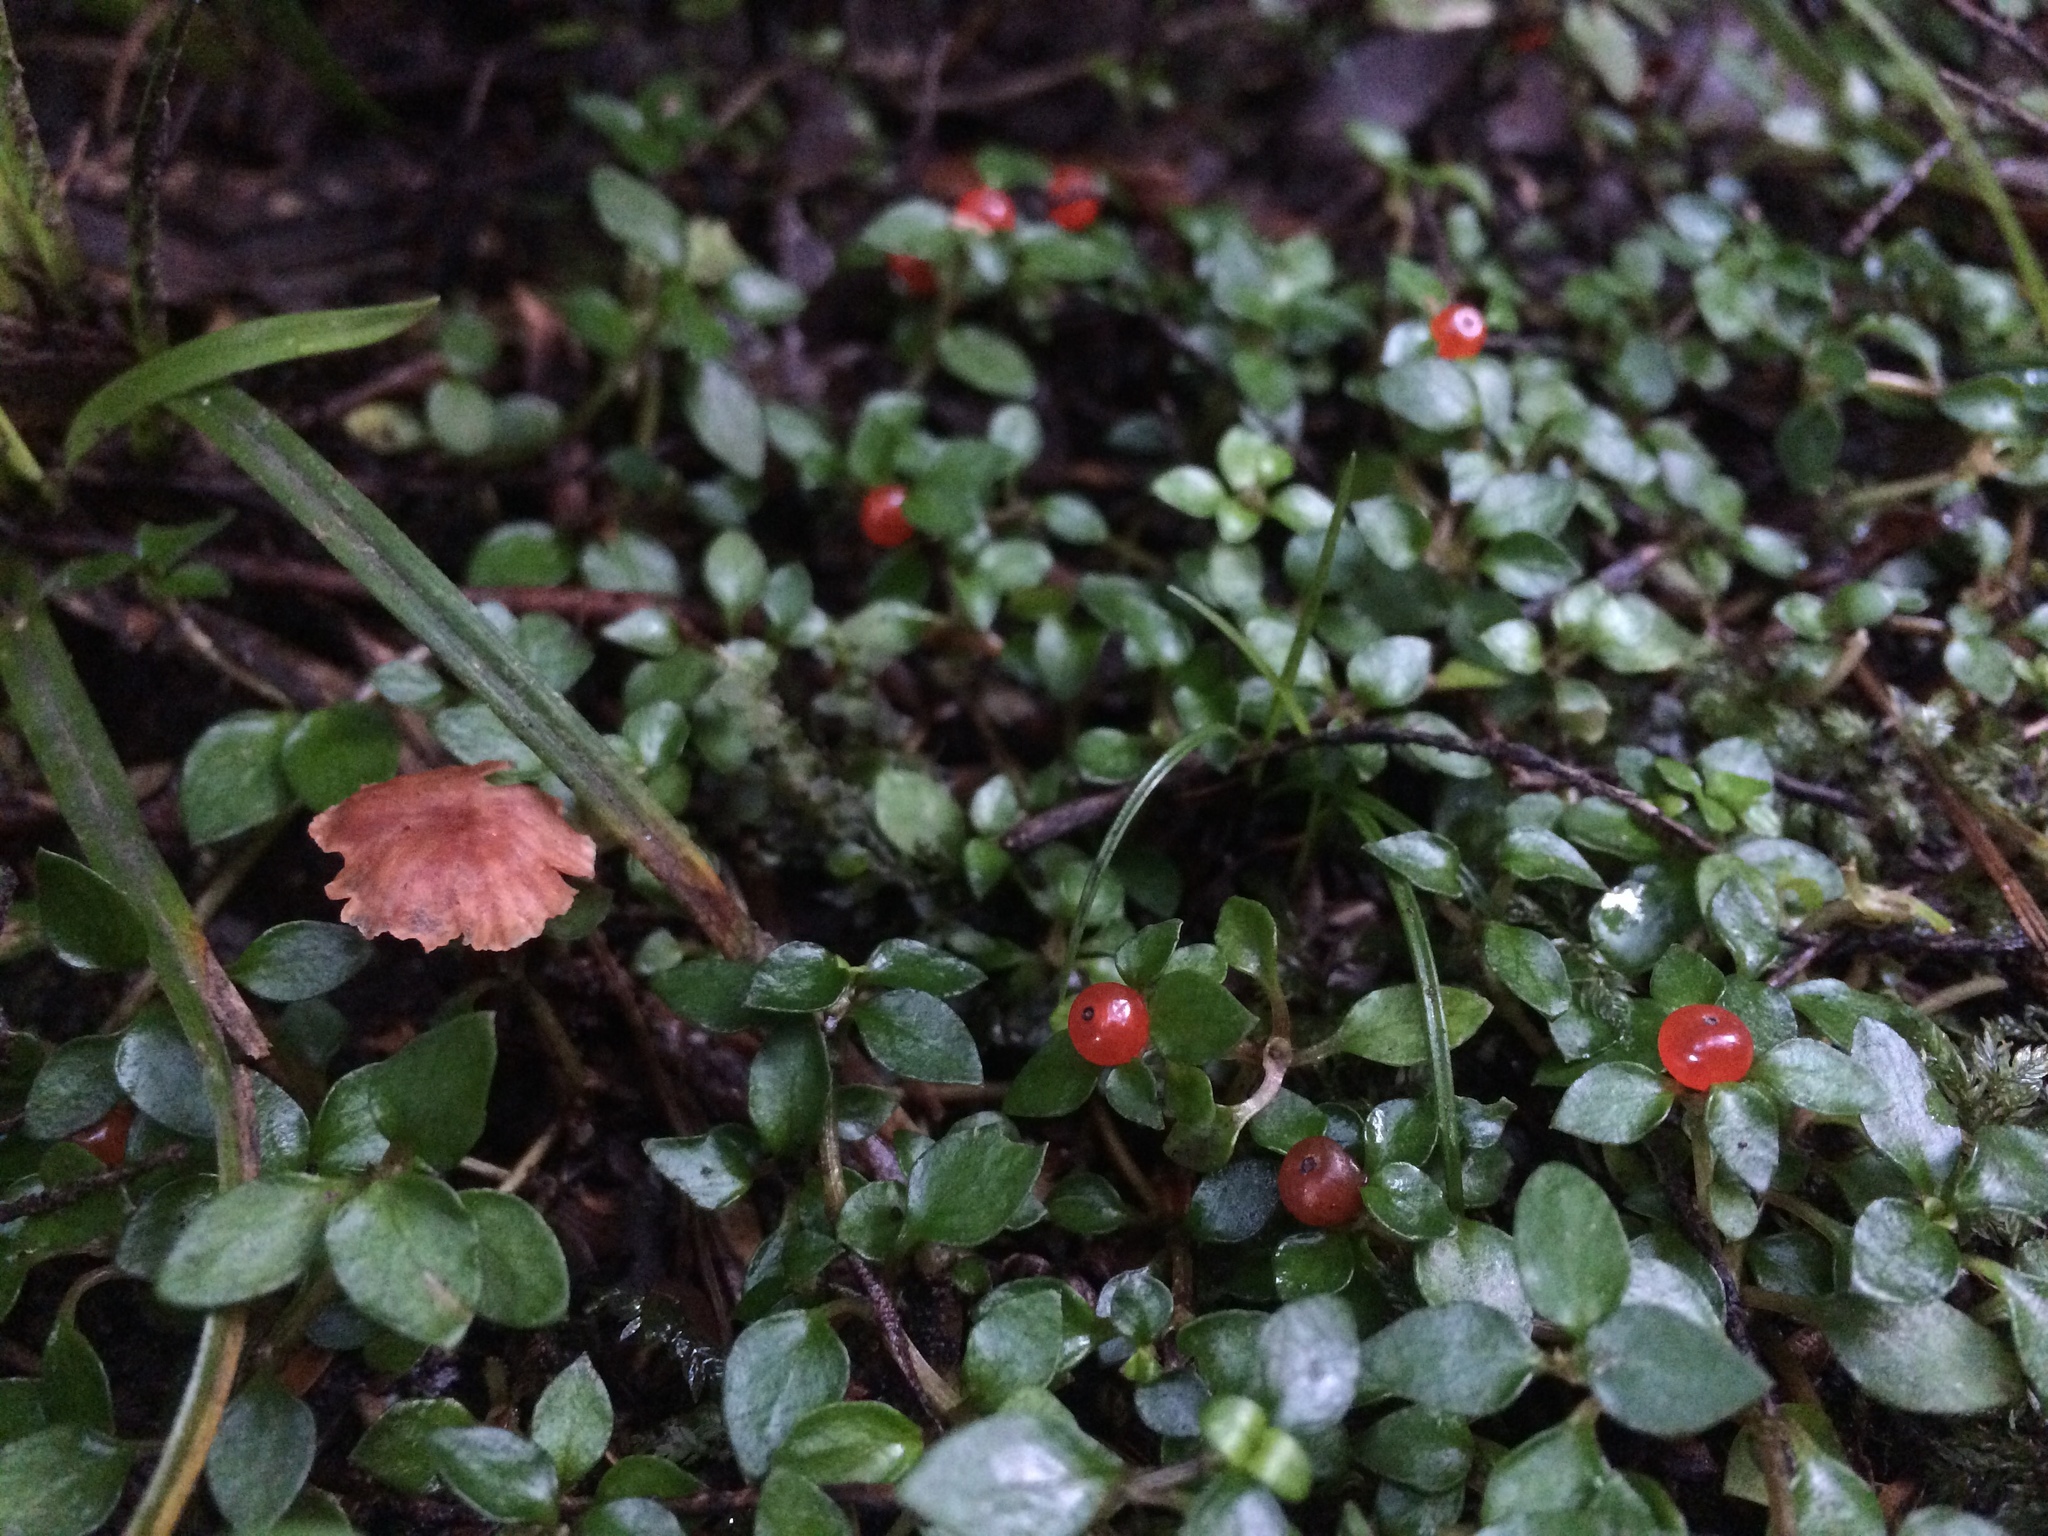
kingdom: Plantae
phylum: Tracheophyta
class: Magnoliopsida
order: Gentianales
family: Rubiaceae
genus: Nertera
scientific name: Nertera granadensis
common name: Beadplant
